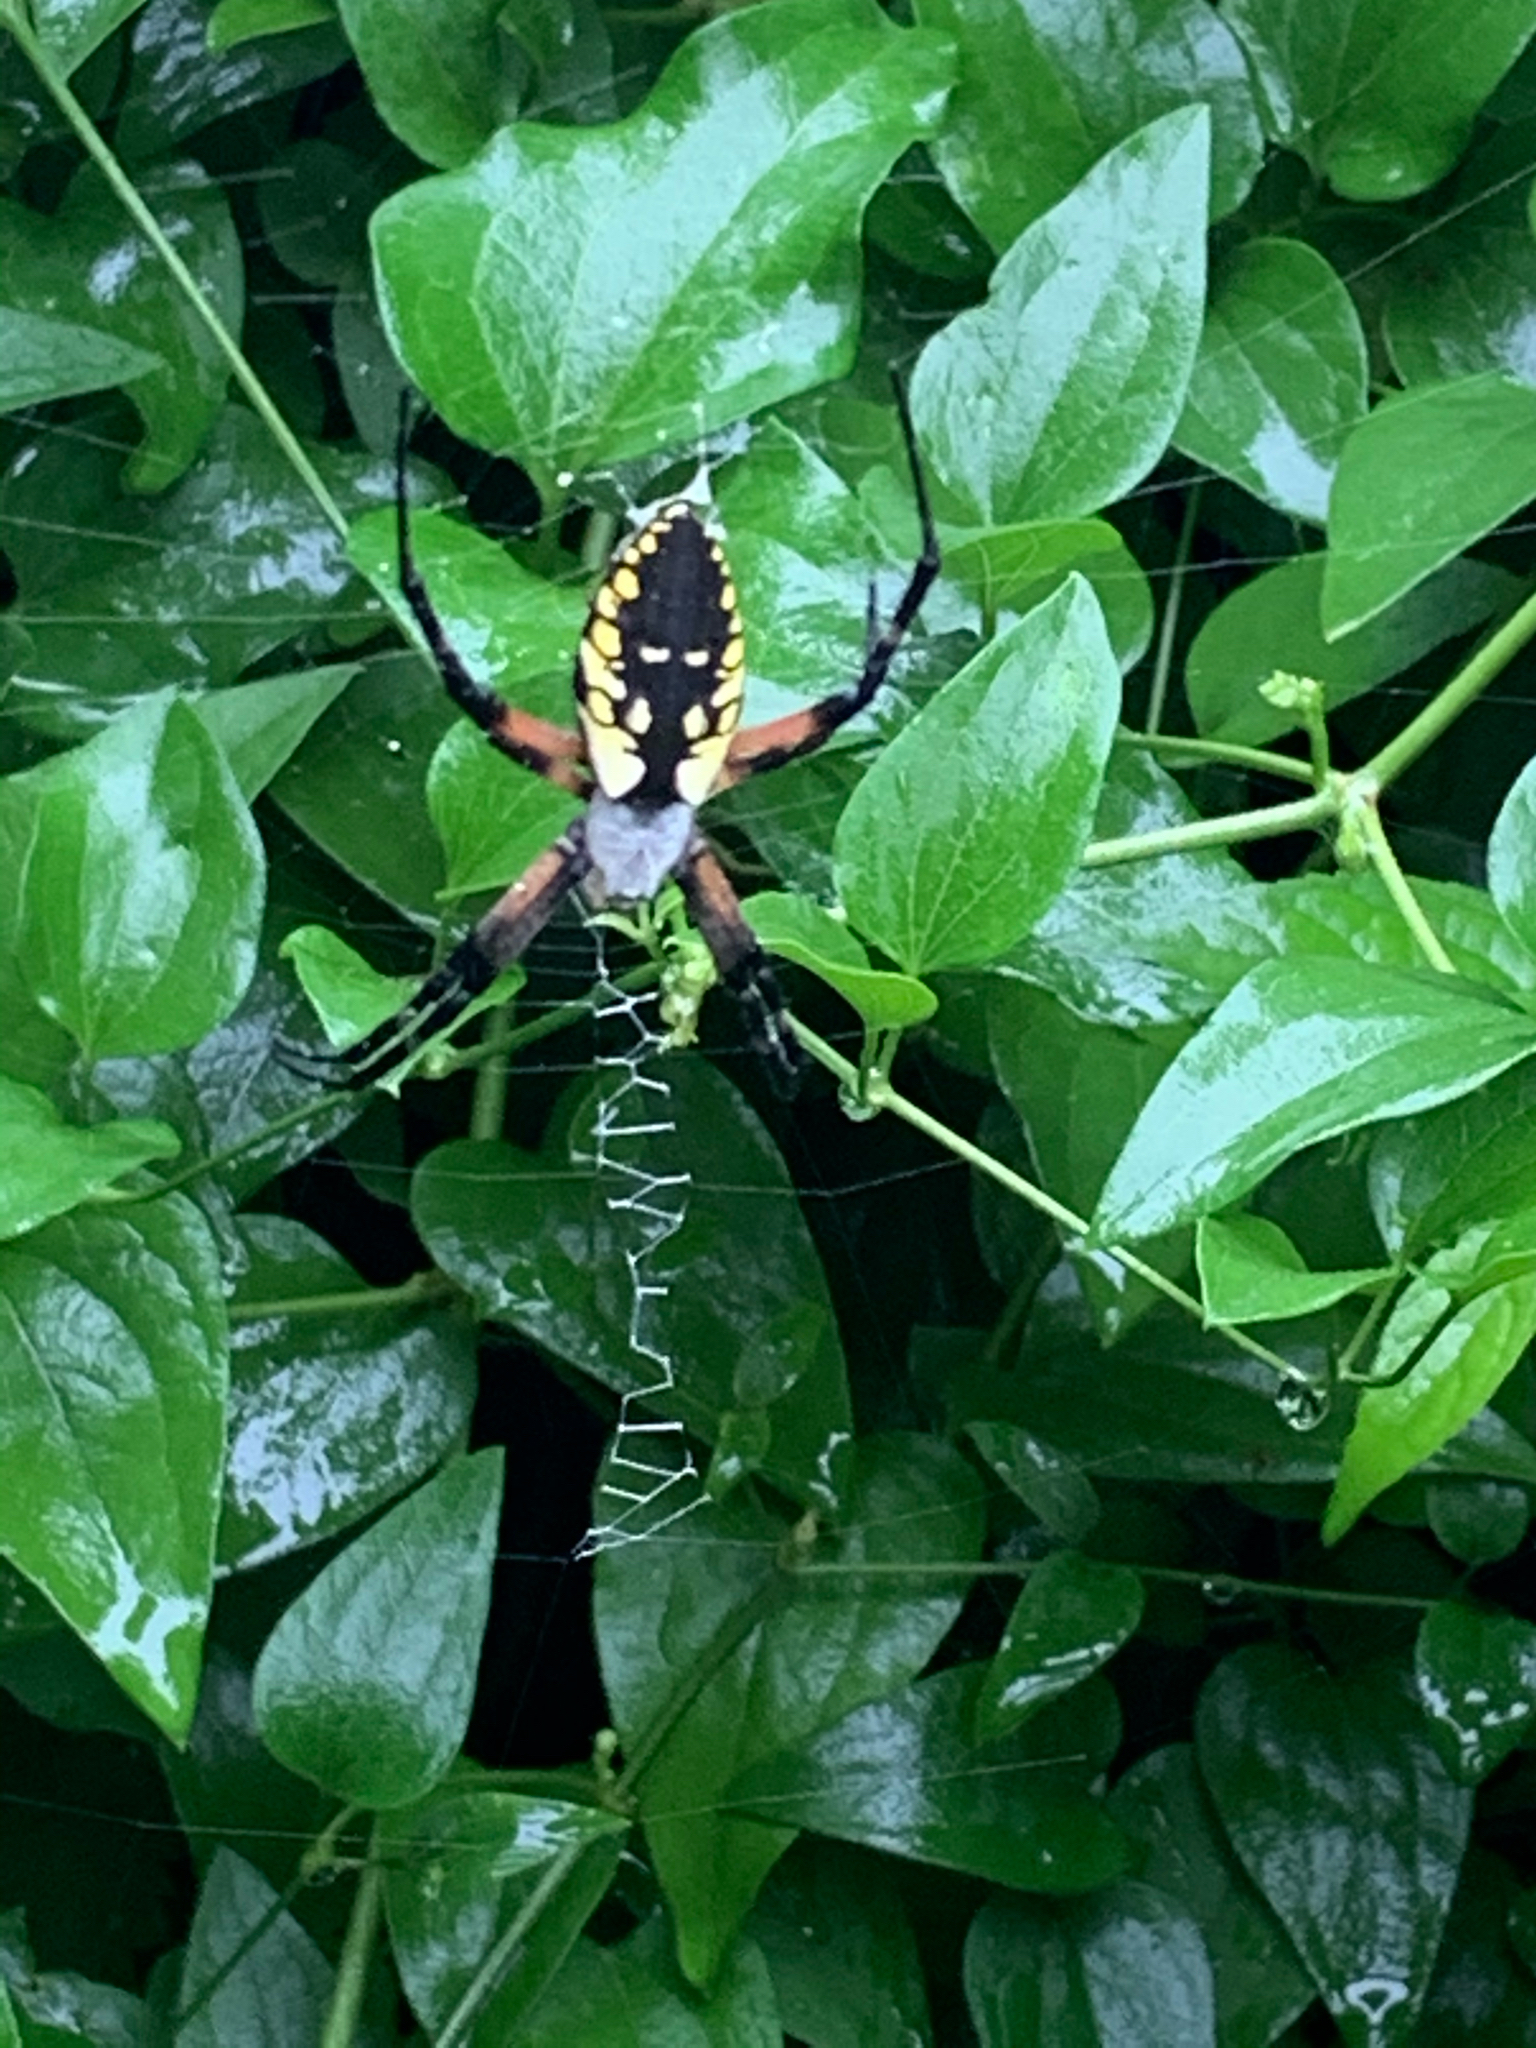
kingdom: Animalia
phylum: Arthropoda
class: Arachnida
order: Araneae
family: Araneidae
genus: Argiope
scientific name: Argiope aurantia
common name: Orb weavers
